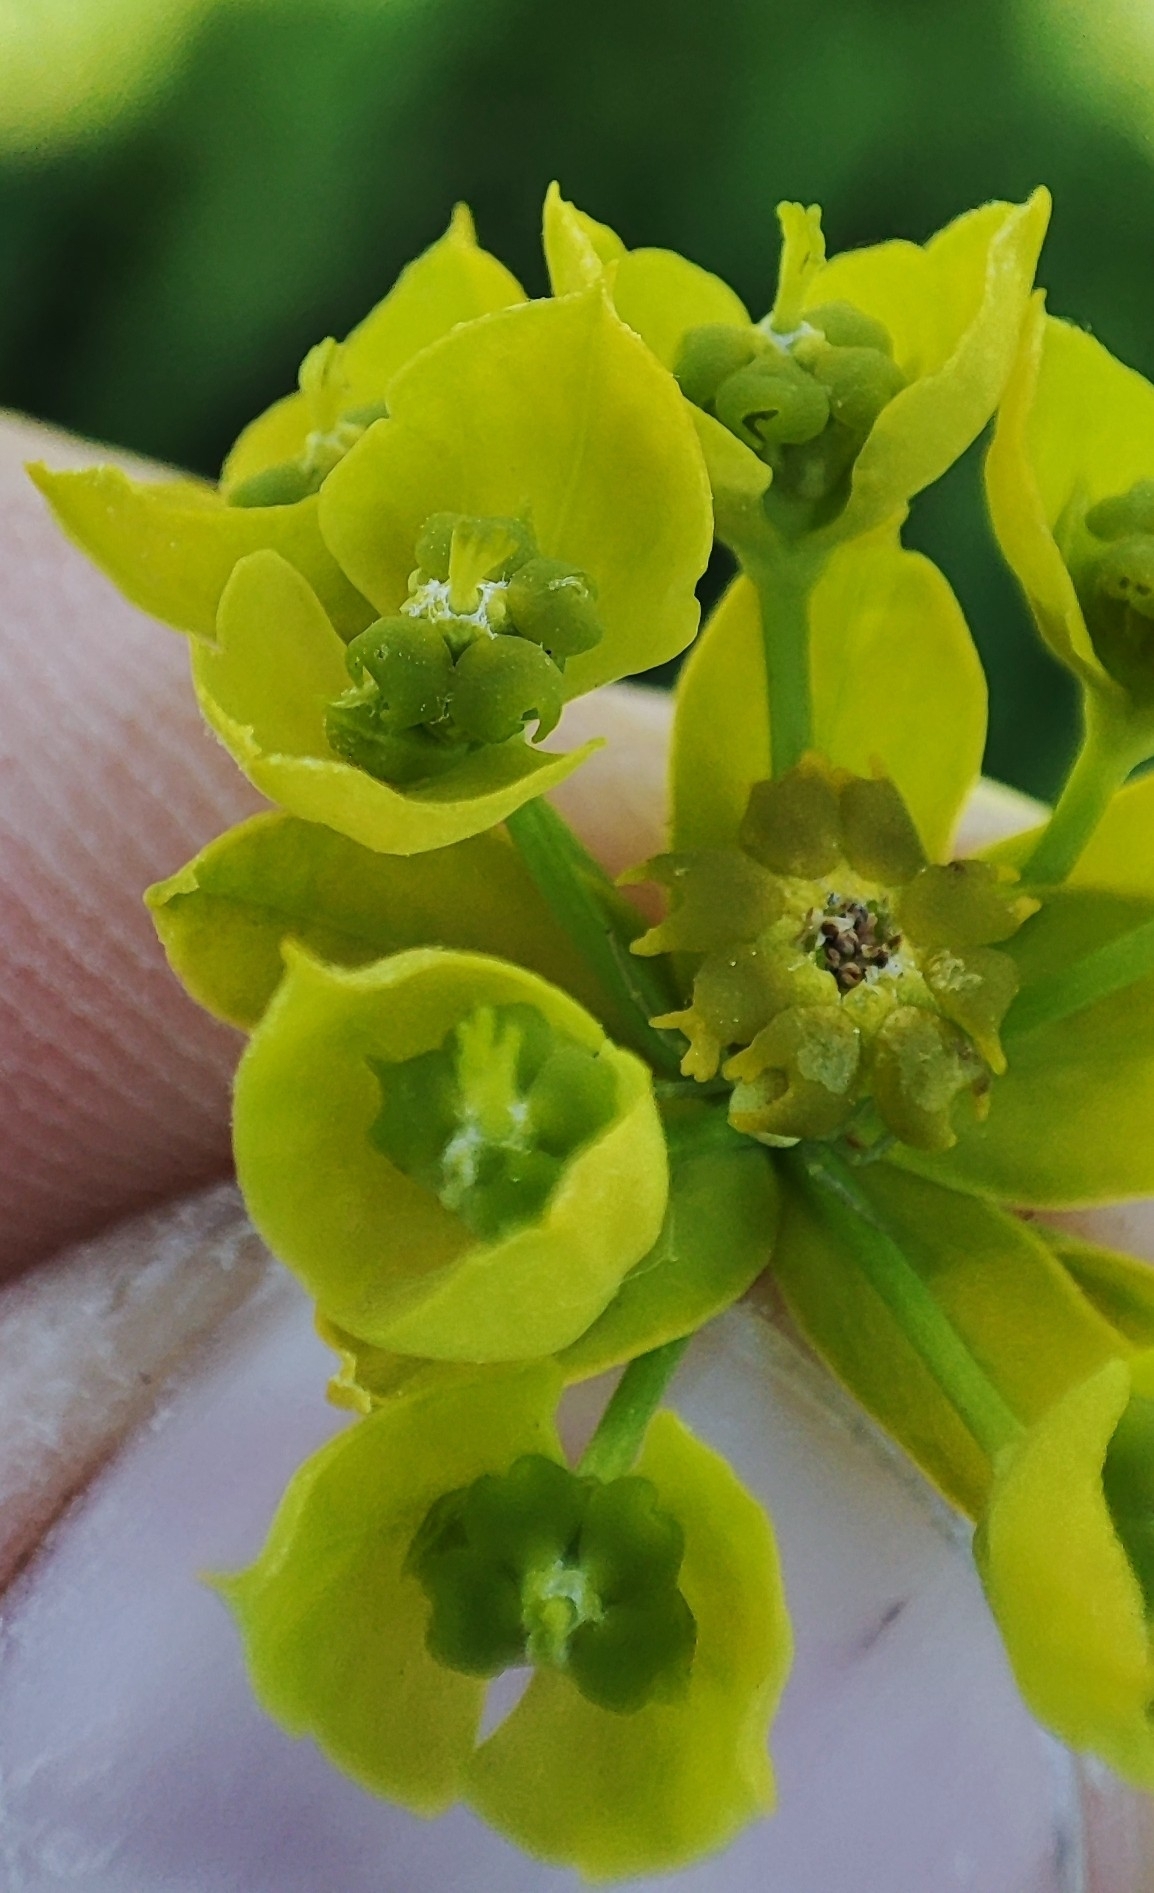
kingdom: Plantae
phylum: Tracheophyta
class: Magnoliopsida
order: Malpighiales
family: Euphorbiaceae
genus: Euphorbia
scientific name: Euphorbia virgata
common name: Leafy spurge
